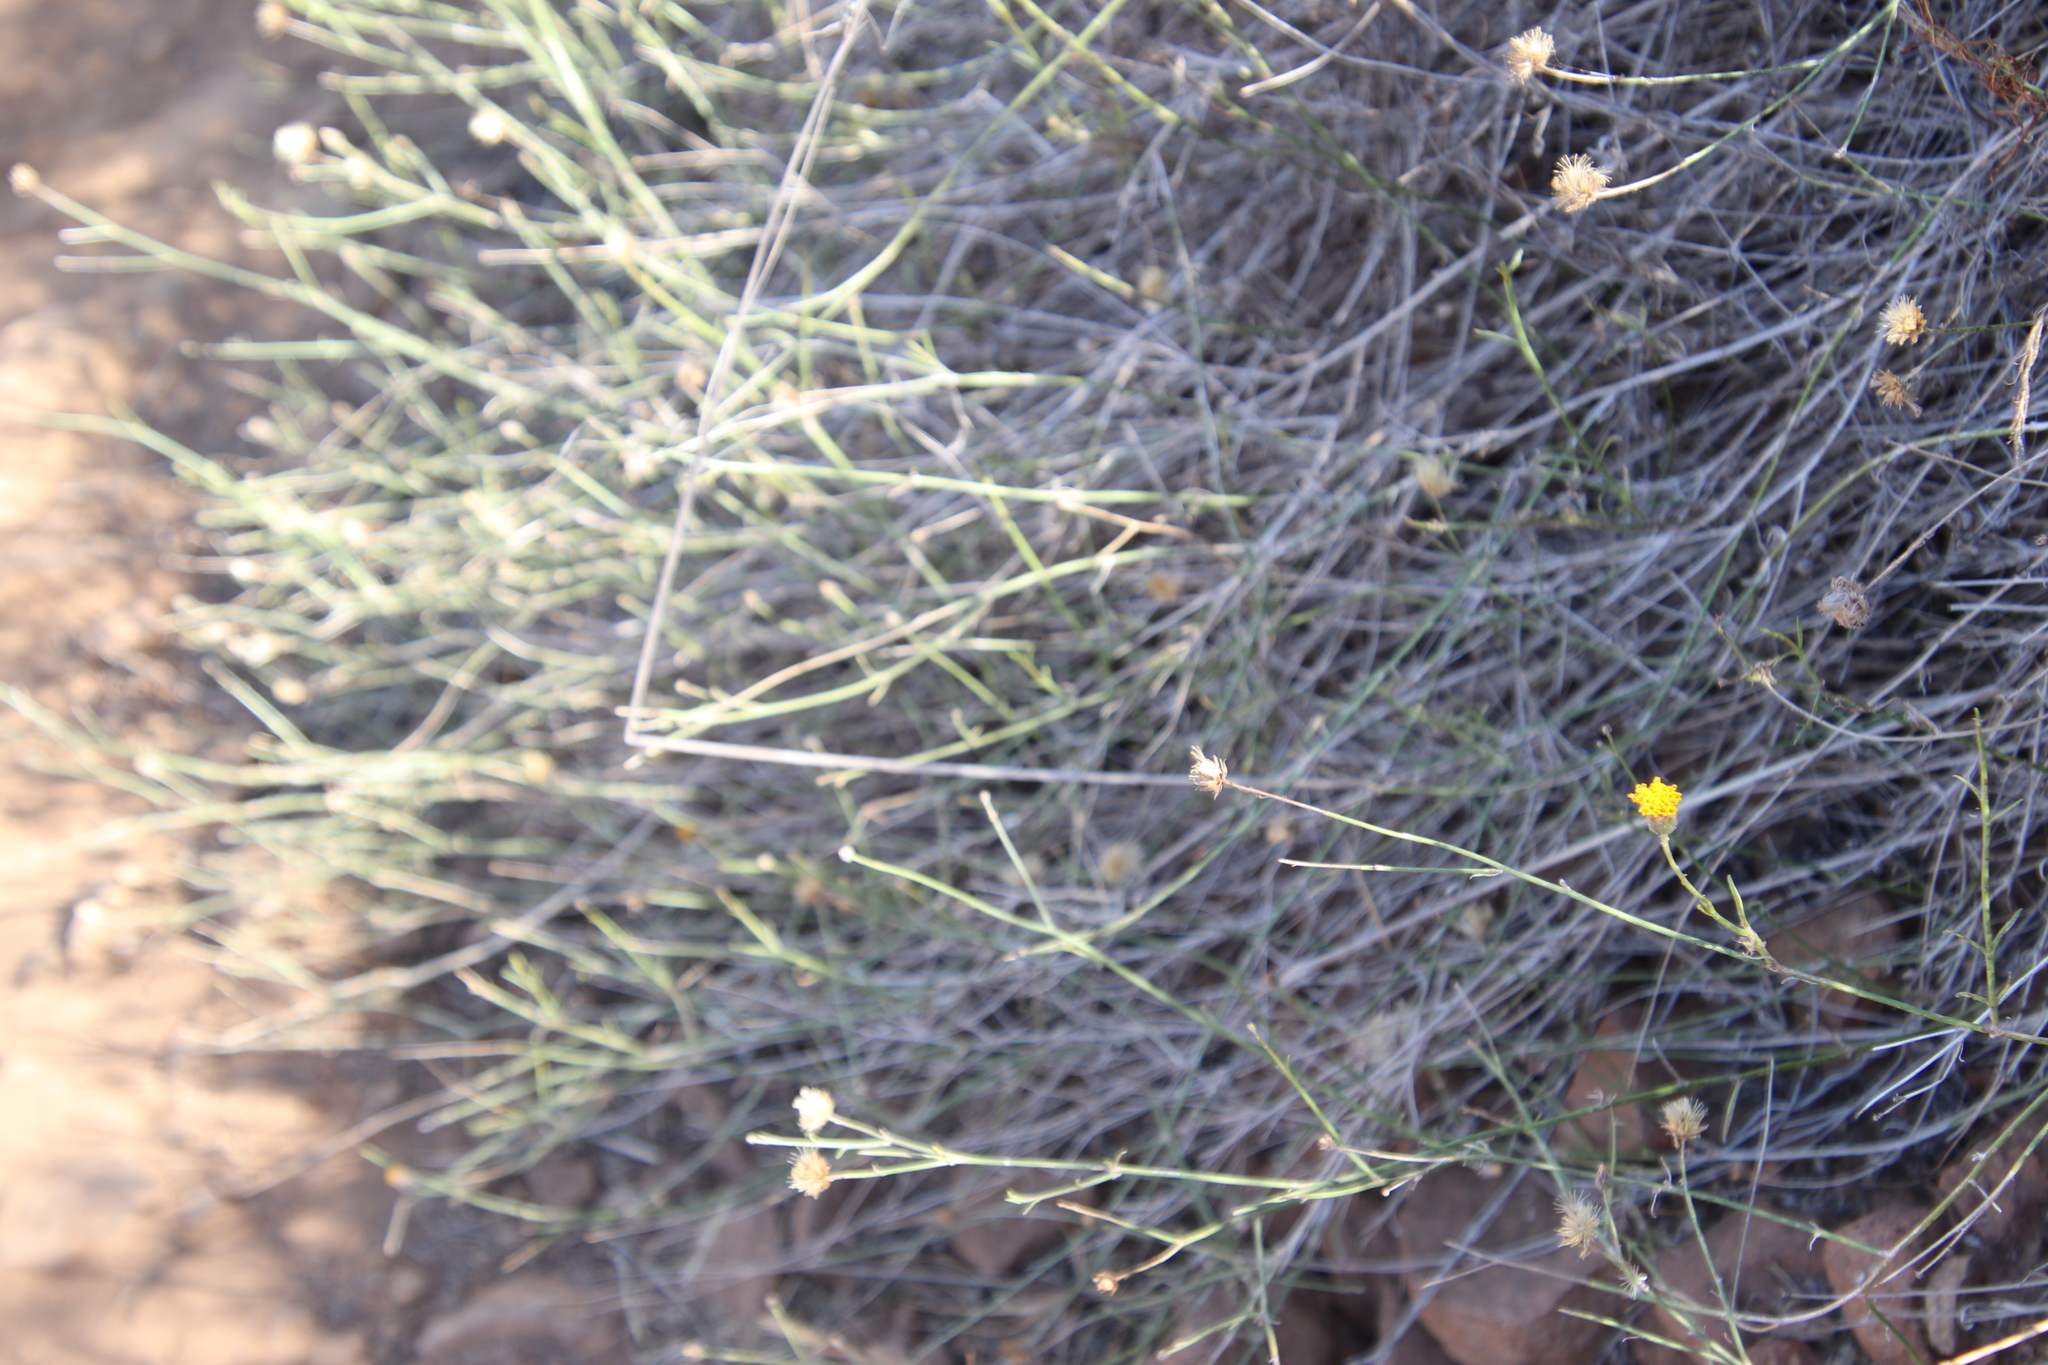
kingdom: Plantae
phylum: Tracheophyta
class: Magnoliopsida
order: Asterales
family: Asteraceae
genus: Bebbia
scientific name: Bebbia juncea
